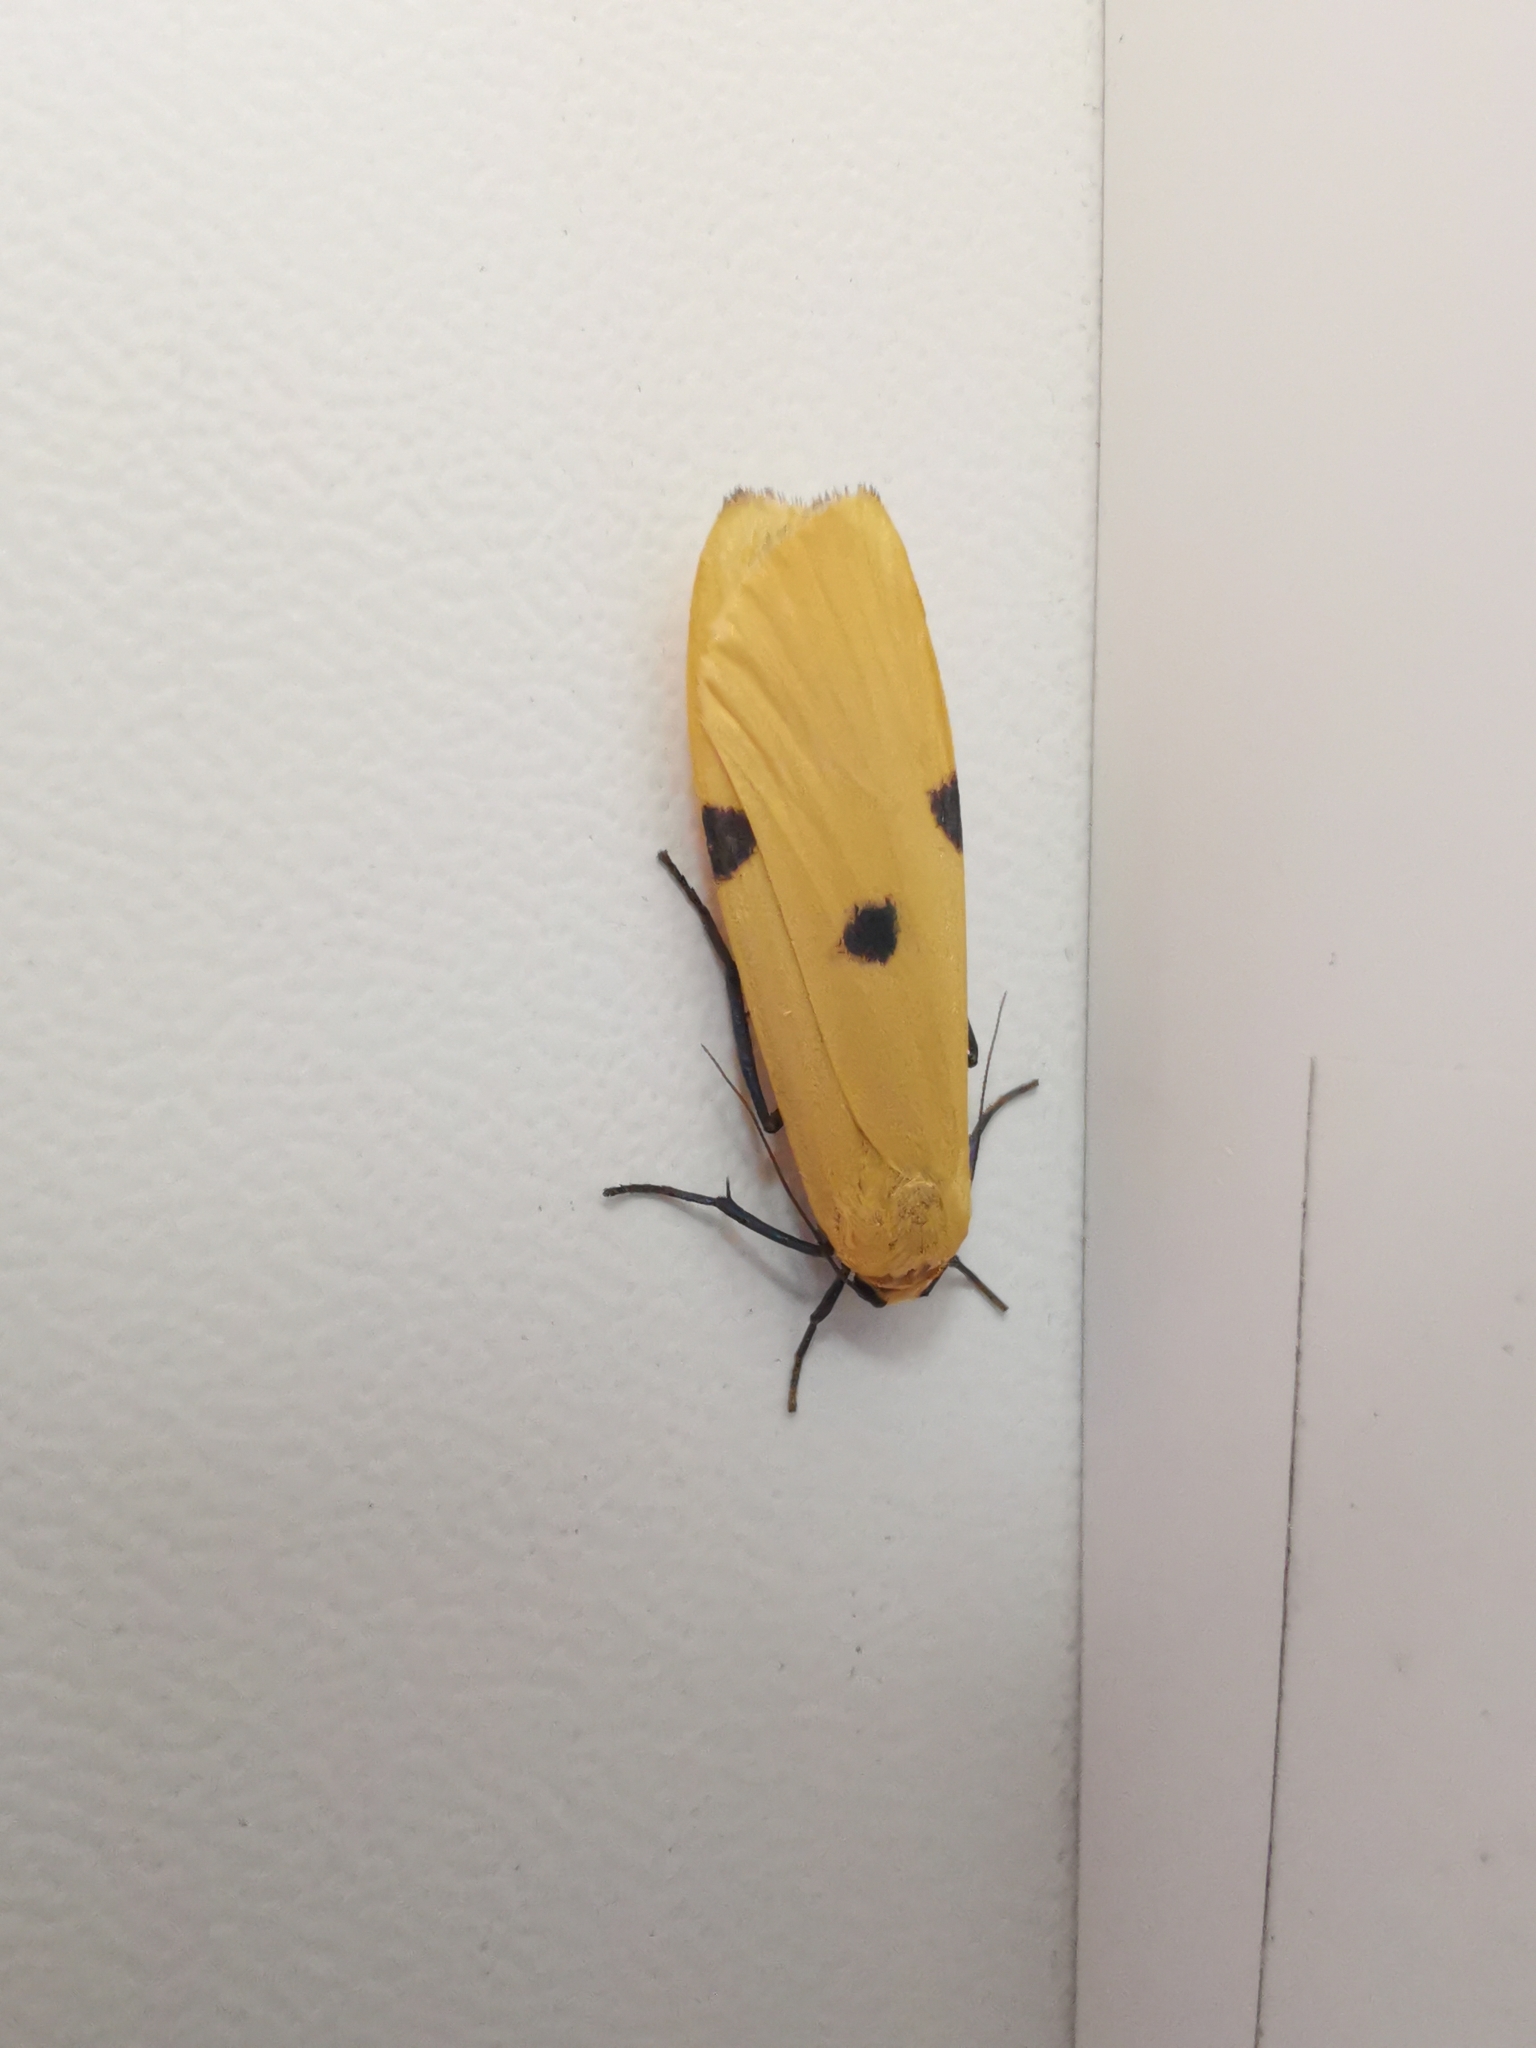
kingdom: Animalia
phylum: Arthropoda
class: Insecta
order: Lepidoptera
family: Erebidae
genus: Lithosia
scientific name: Lithosia quadra
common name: Four-spotted footman
